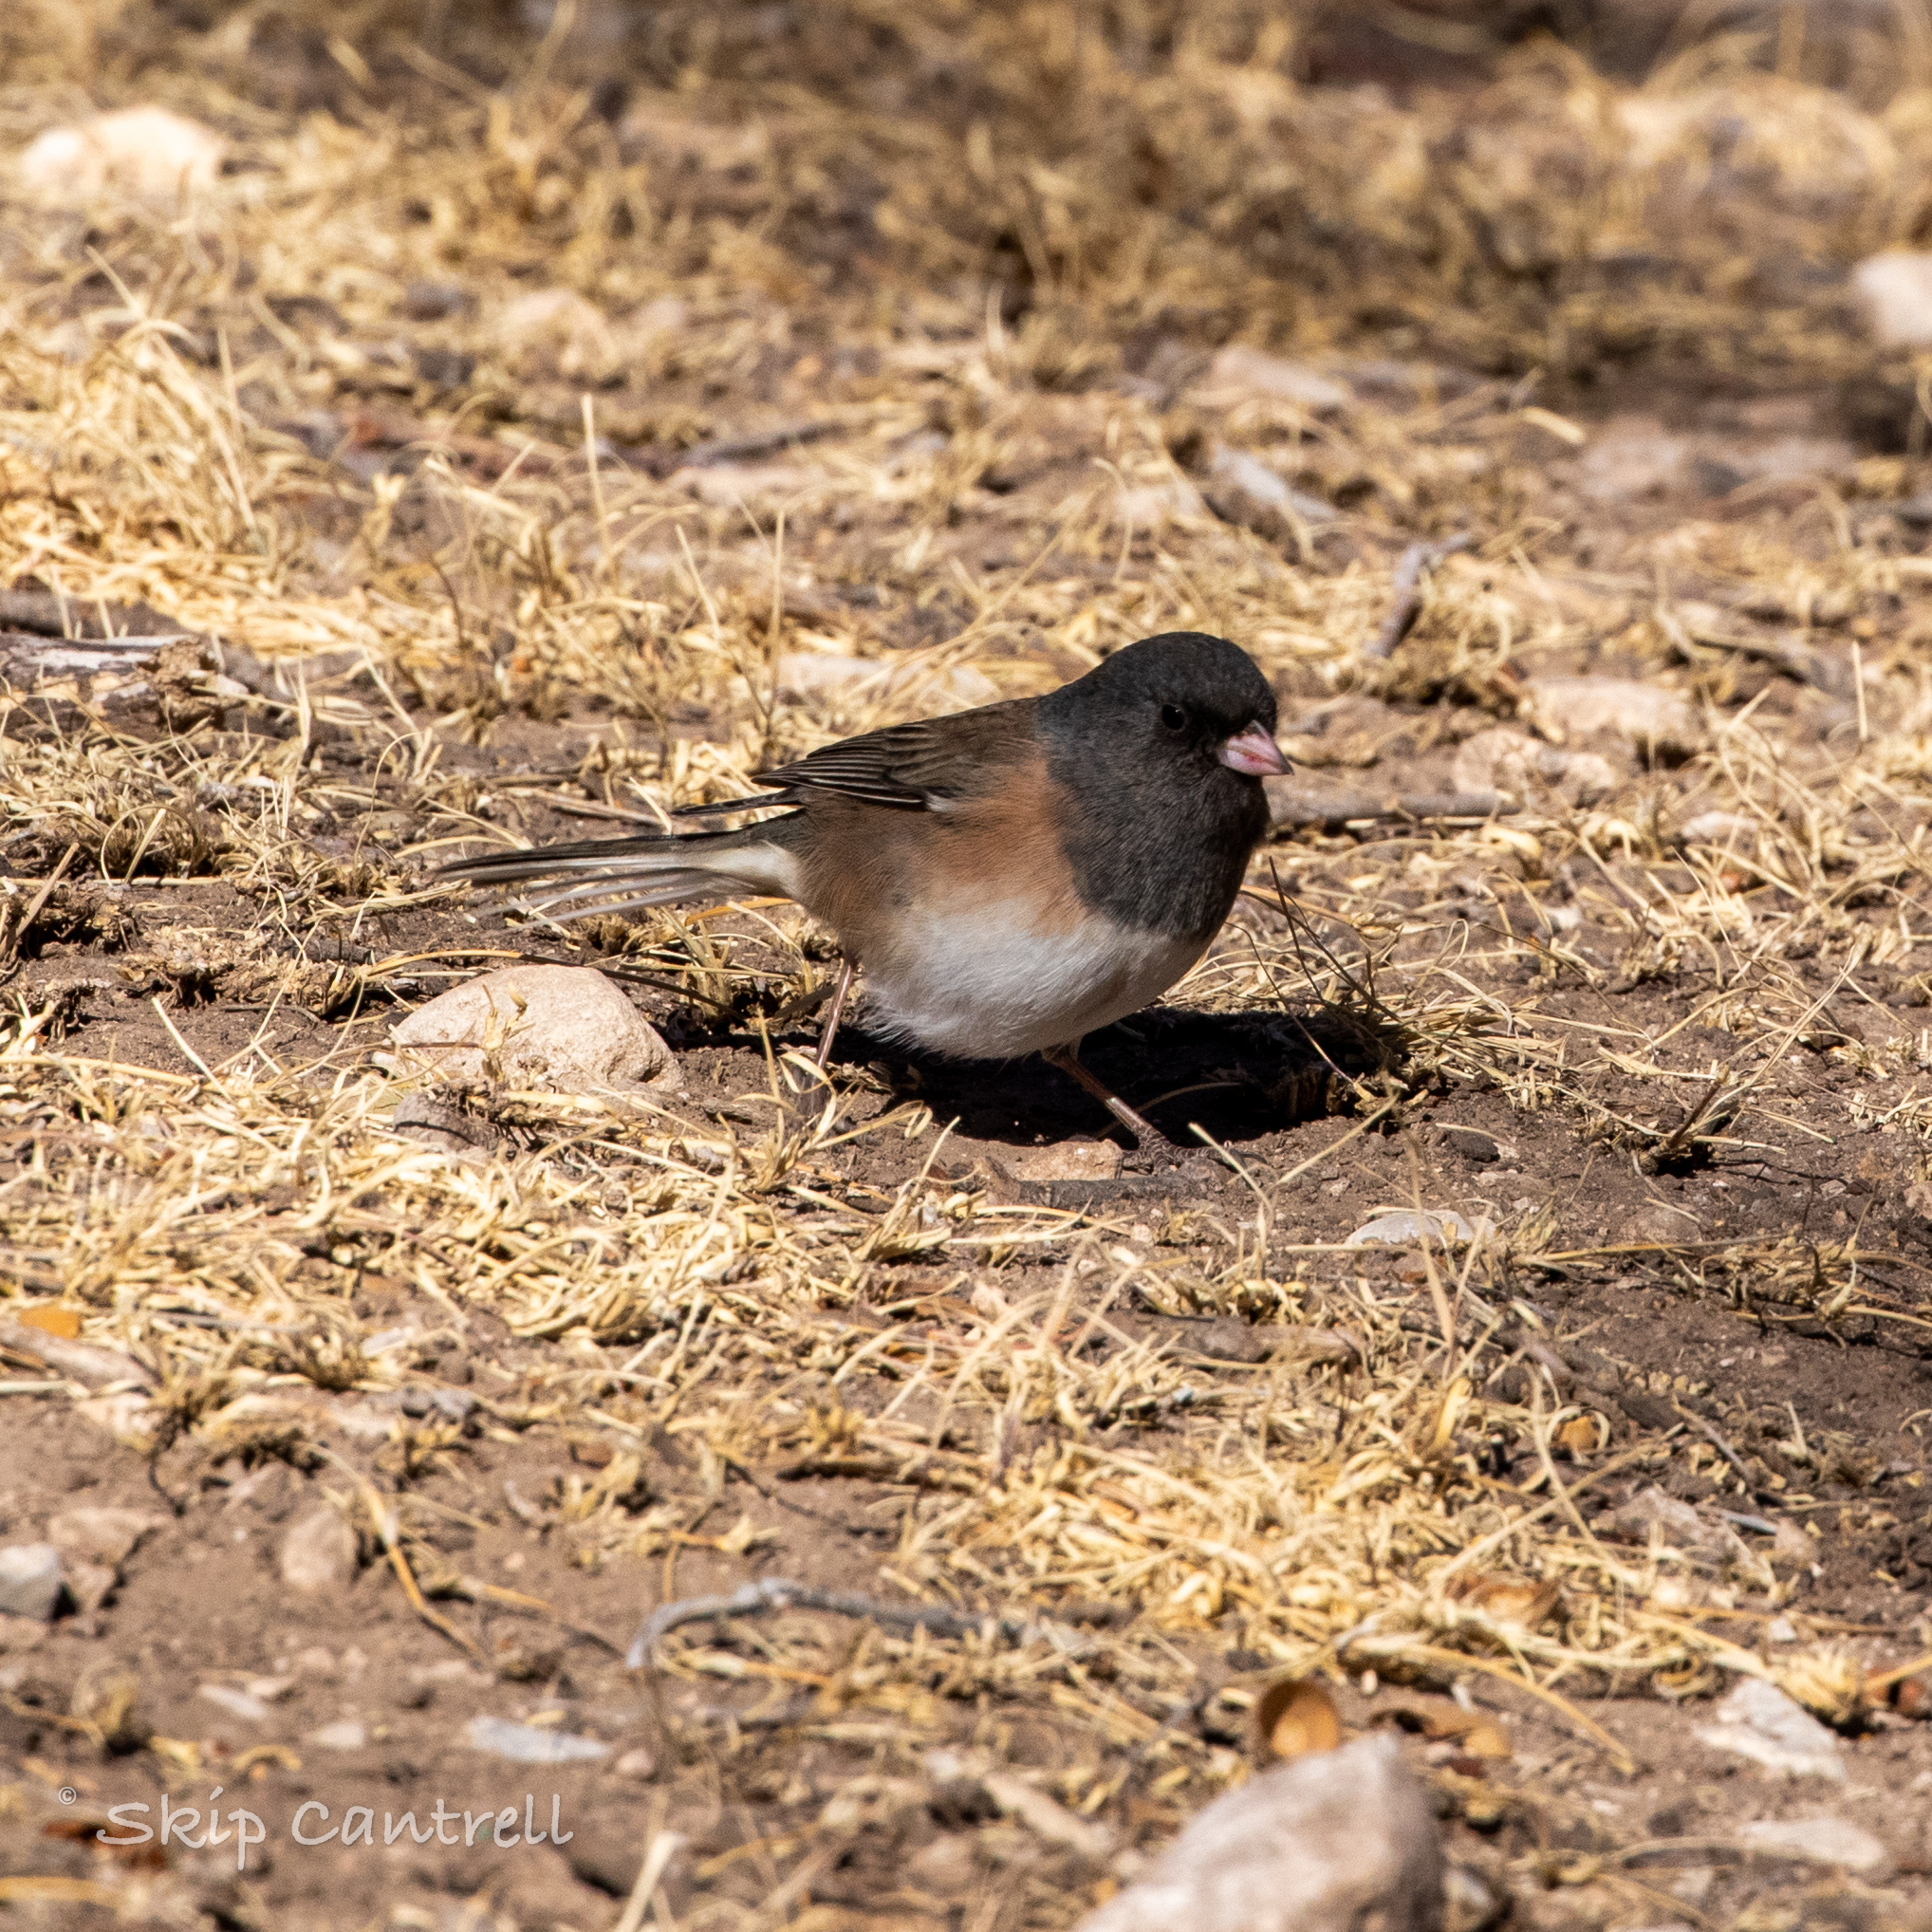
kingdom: Animalia
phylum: Chordata
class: Aves
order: Passeriformes
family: Passerellidae
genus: Junco
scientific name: Junco hyemalis
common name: Dark-eyed junco
